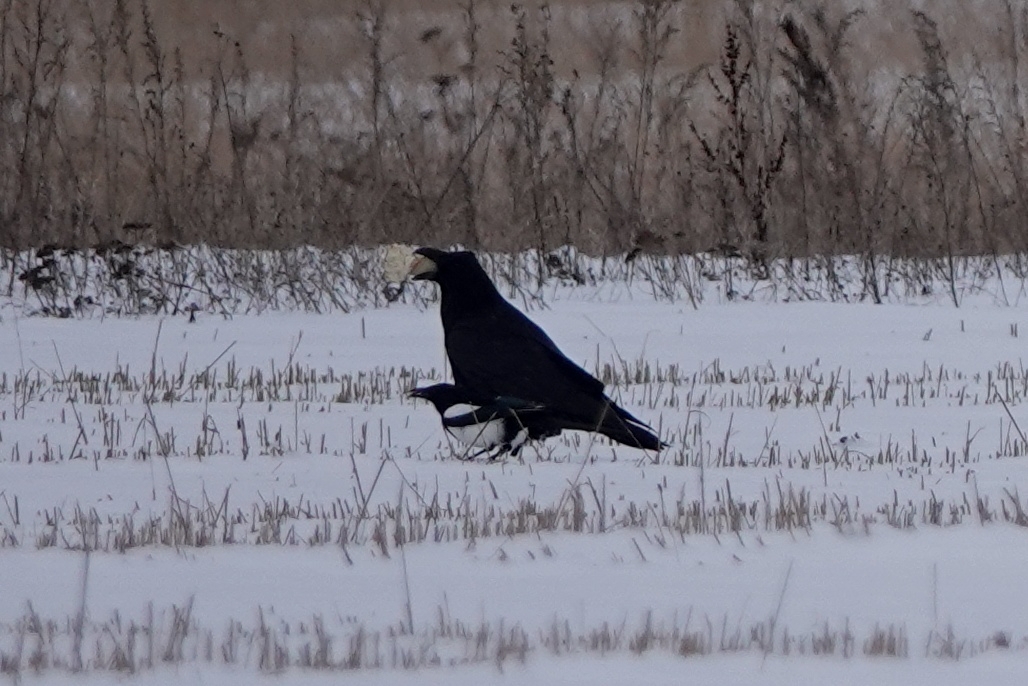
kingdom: Animalia
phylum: Chordata
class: Aves
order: Passeriformes
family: Corvidae
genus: Corvus
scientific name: Corvus corax
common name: Common raven
